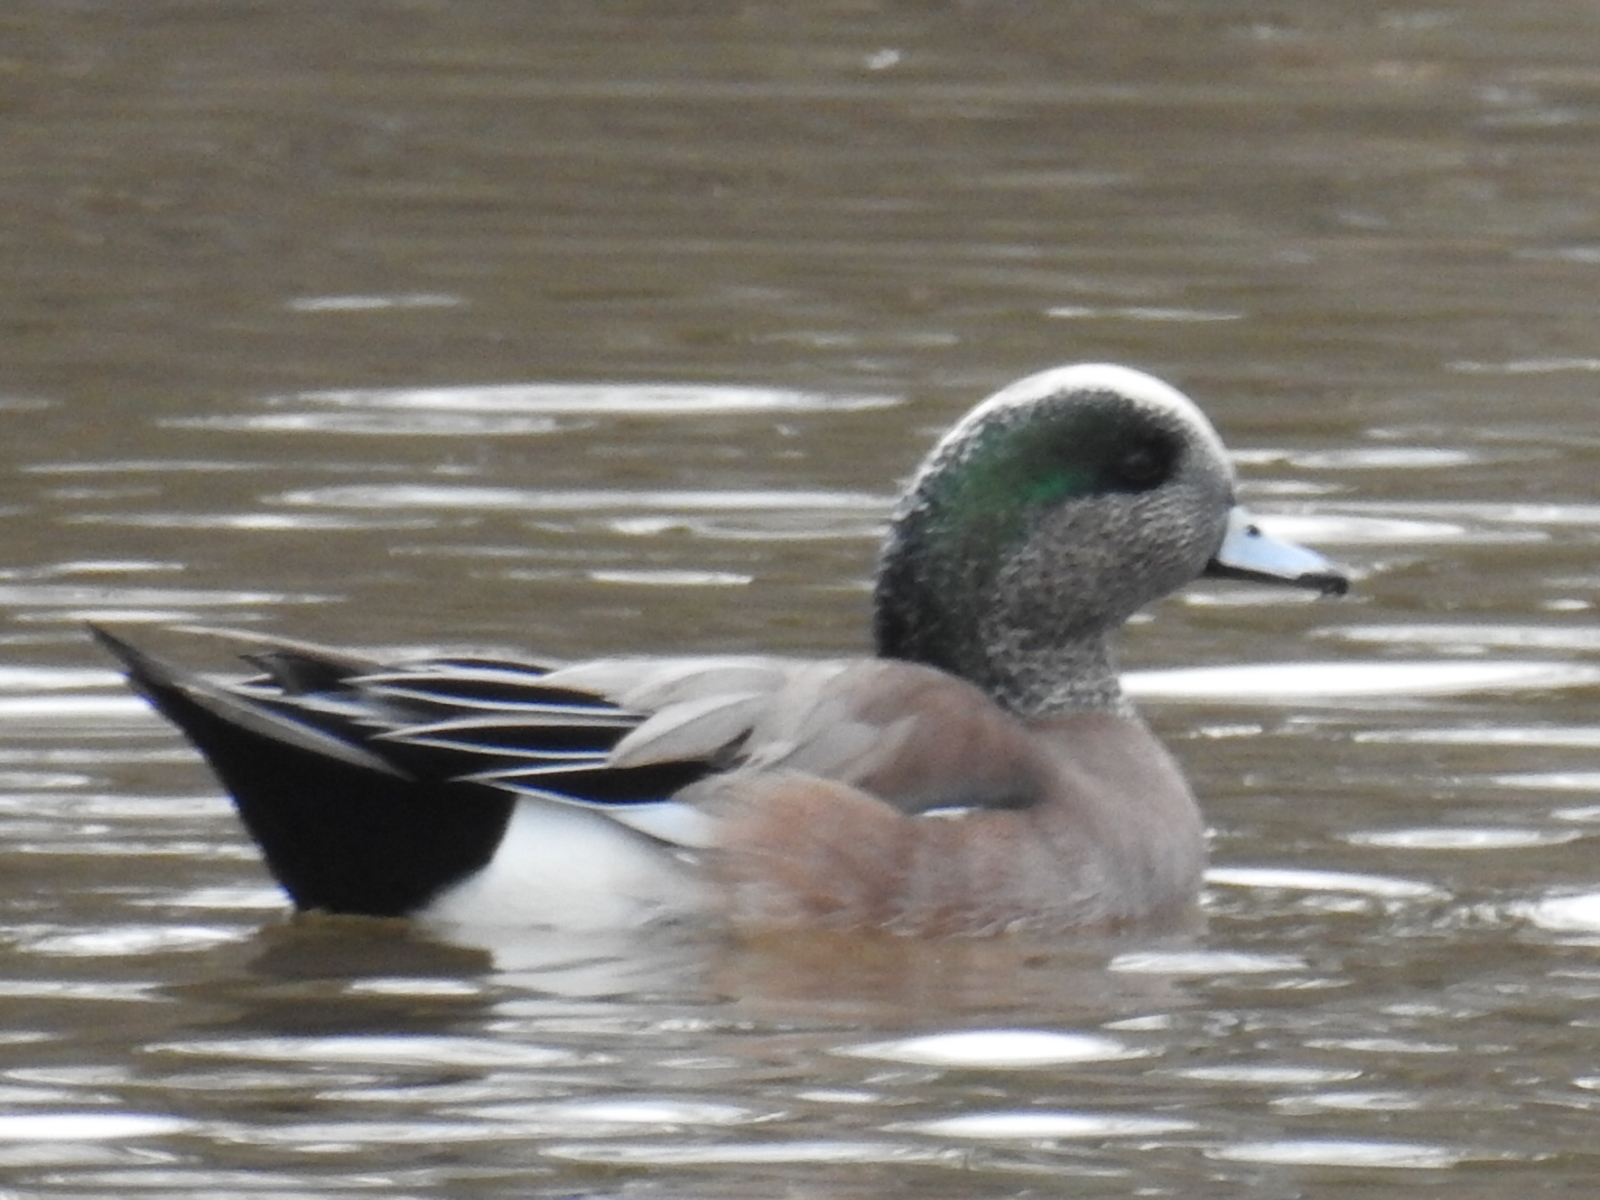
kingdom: Animalia
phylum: Chordata
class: Aves
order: Anseriformes
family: Anatidae
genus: Mareca
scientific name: Mareca americana
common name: American wigeon
